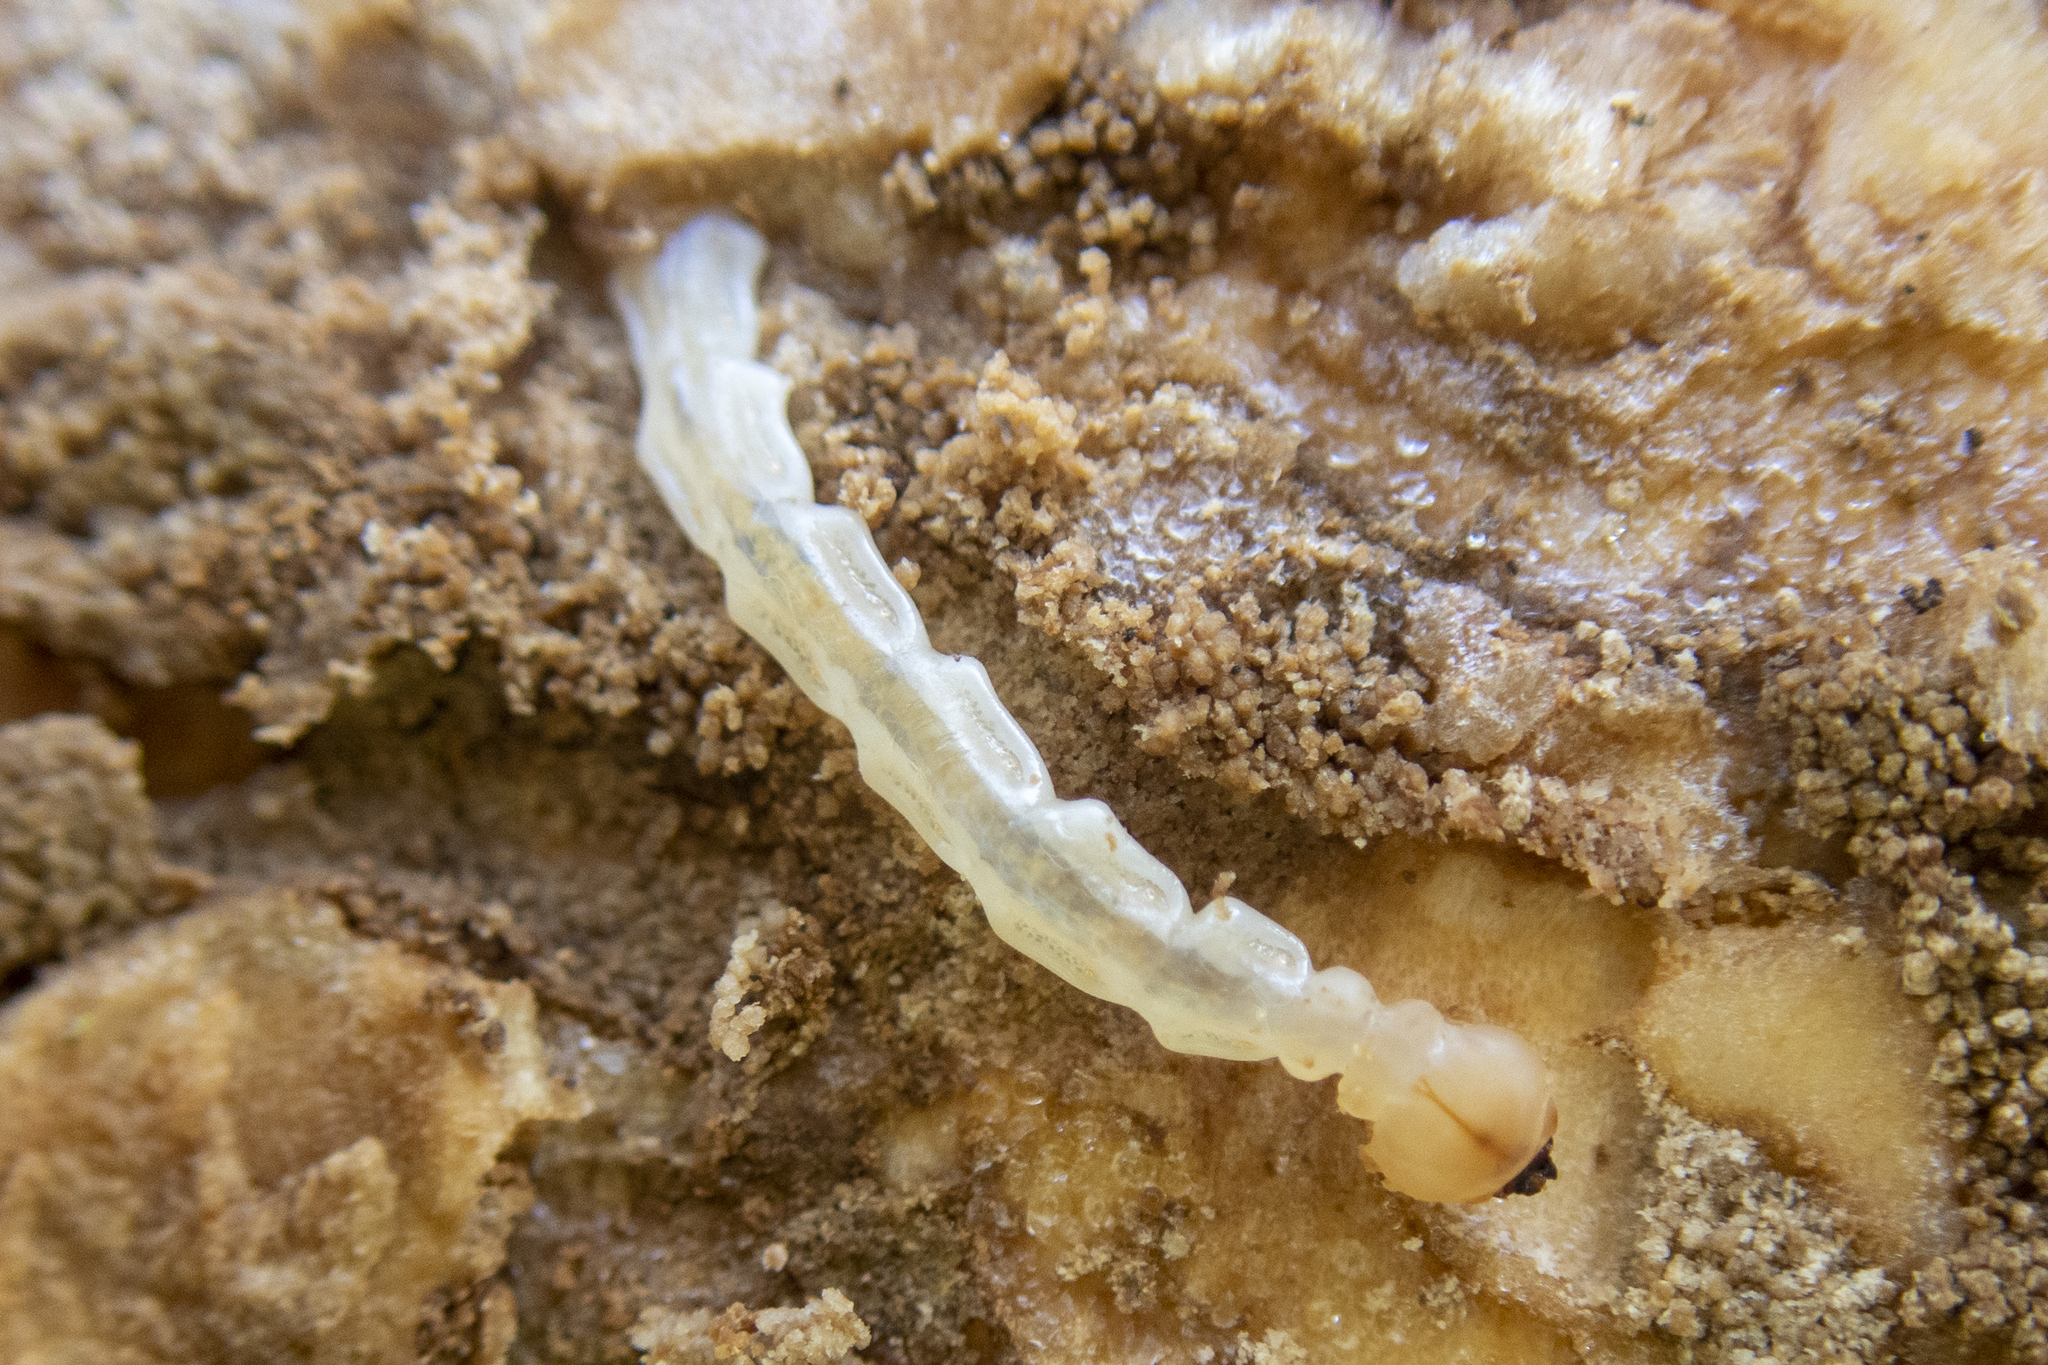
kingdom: Animalia
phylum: Arthropoda
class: Insecta
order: Coleoptera
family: Buprestidae
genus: Agrilus
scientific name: Agrilus planipennis
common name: Emerald ash borer
